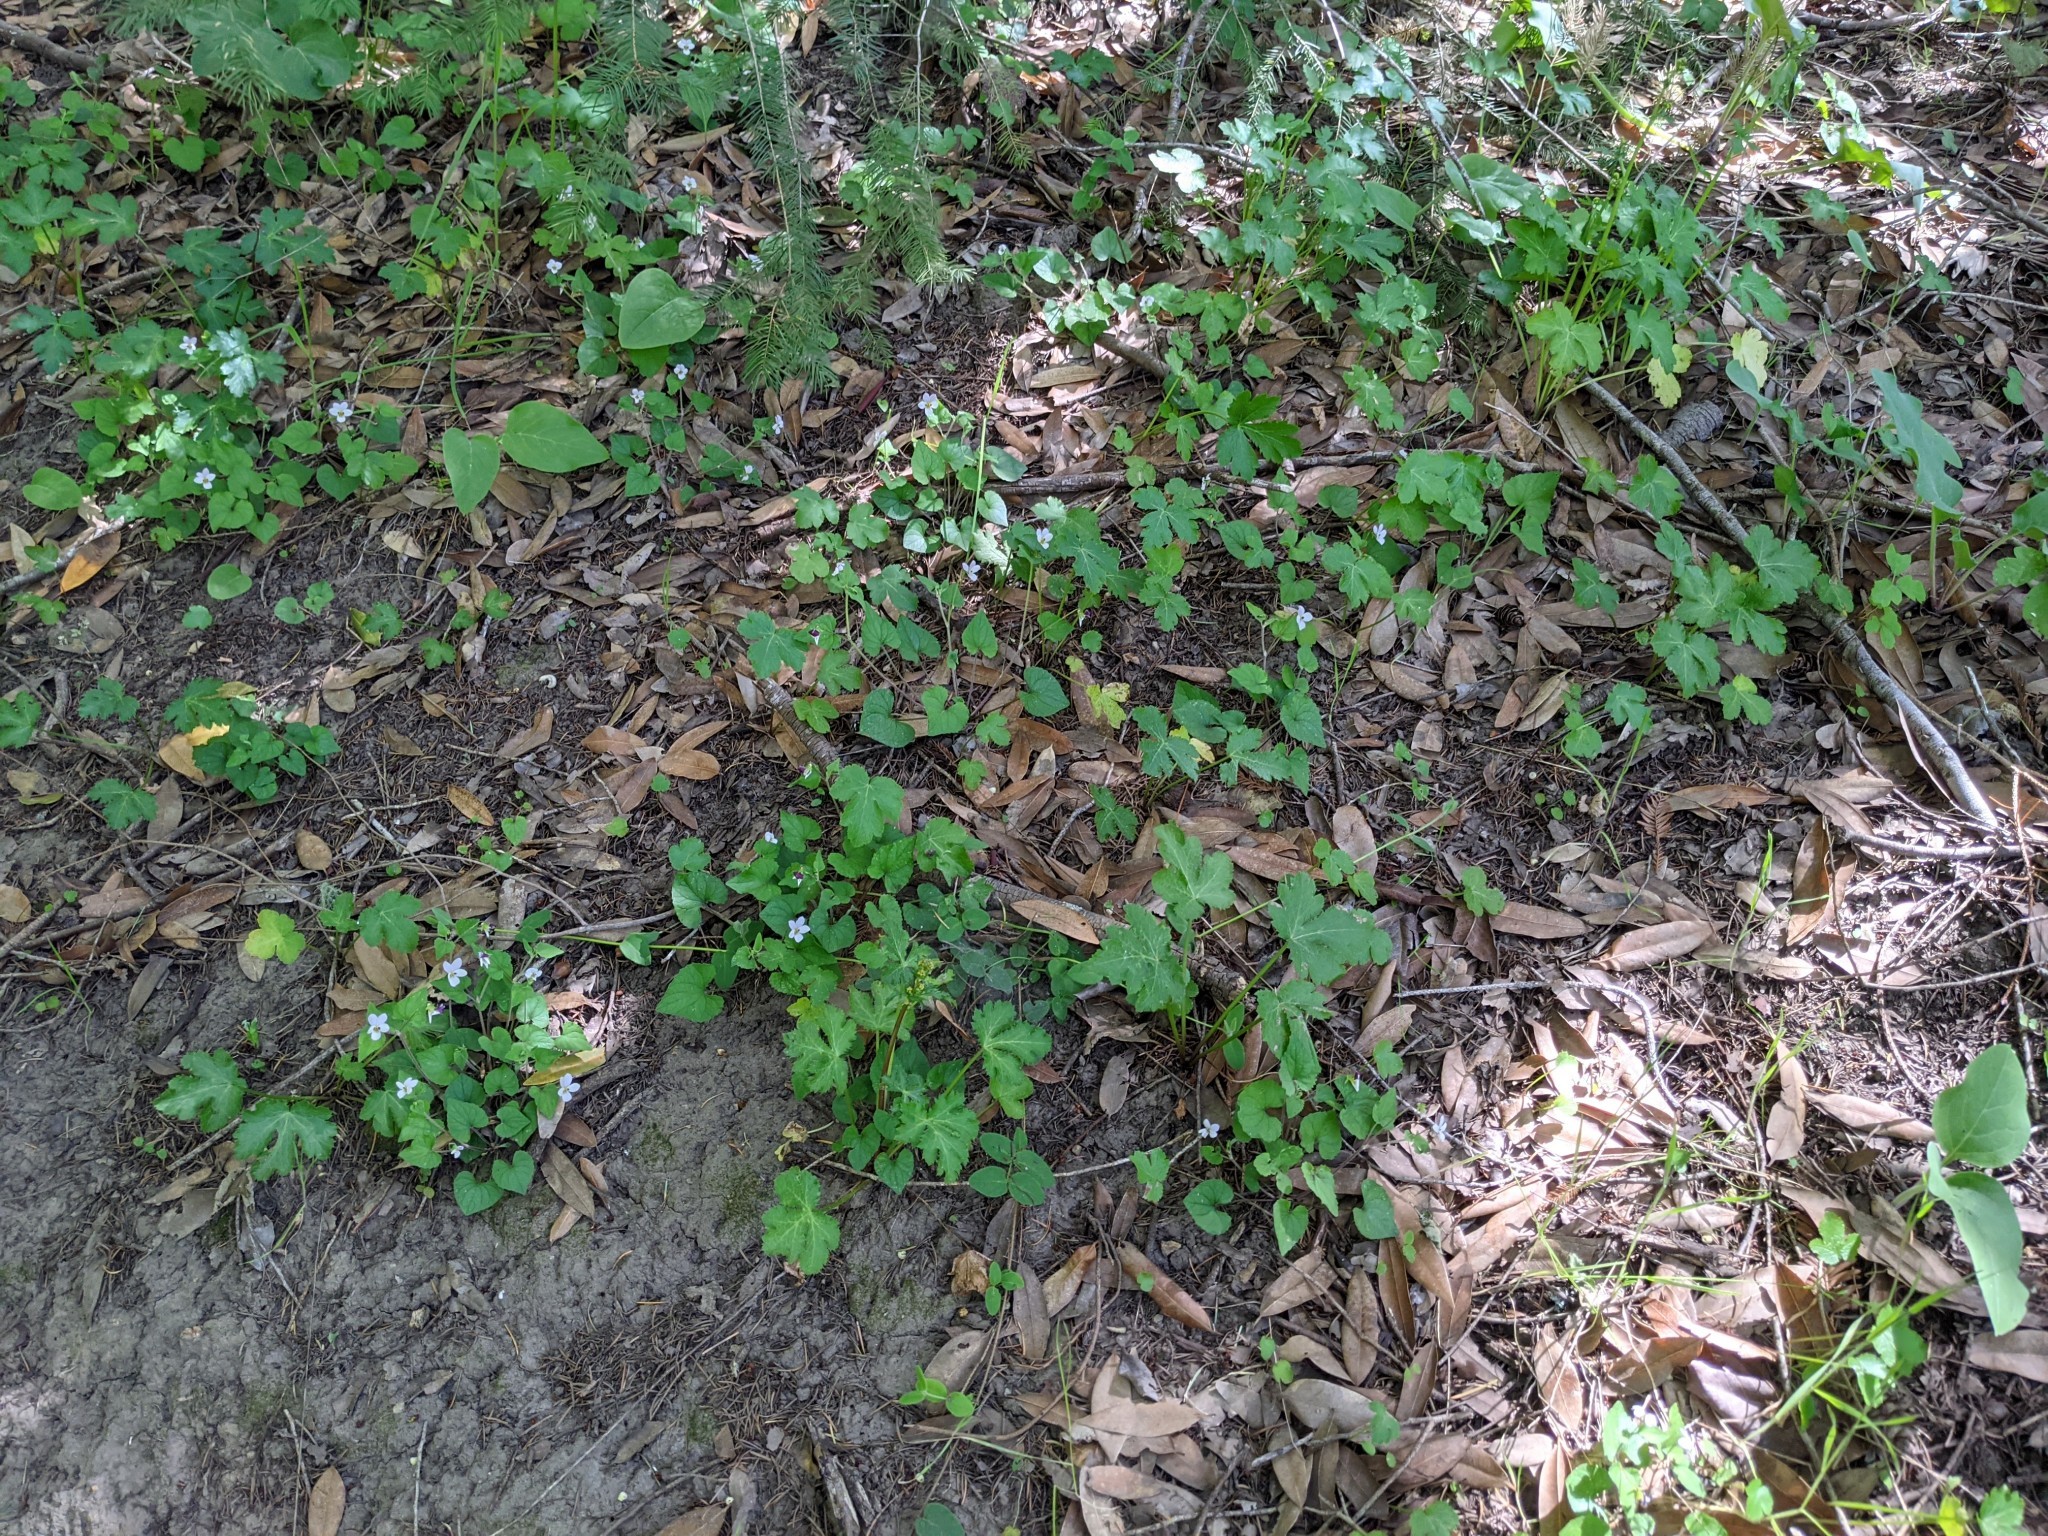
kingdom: Plantae
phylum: Tracheophyta
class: Magnoliopsida
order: Malpighiales
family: Violaceae
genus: Viola
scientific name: Viola ocellata
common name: Western heart's ease
